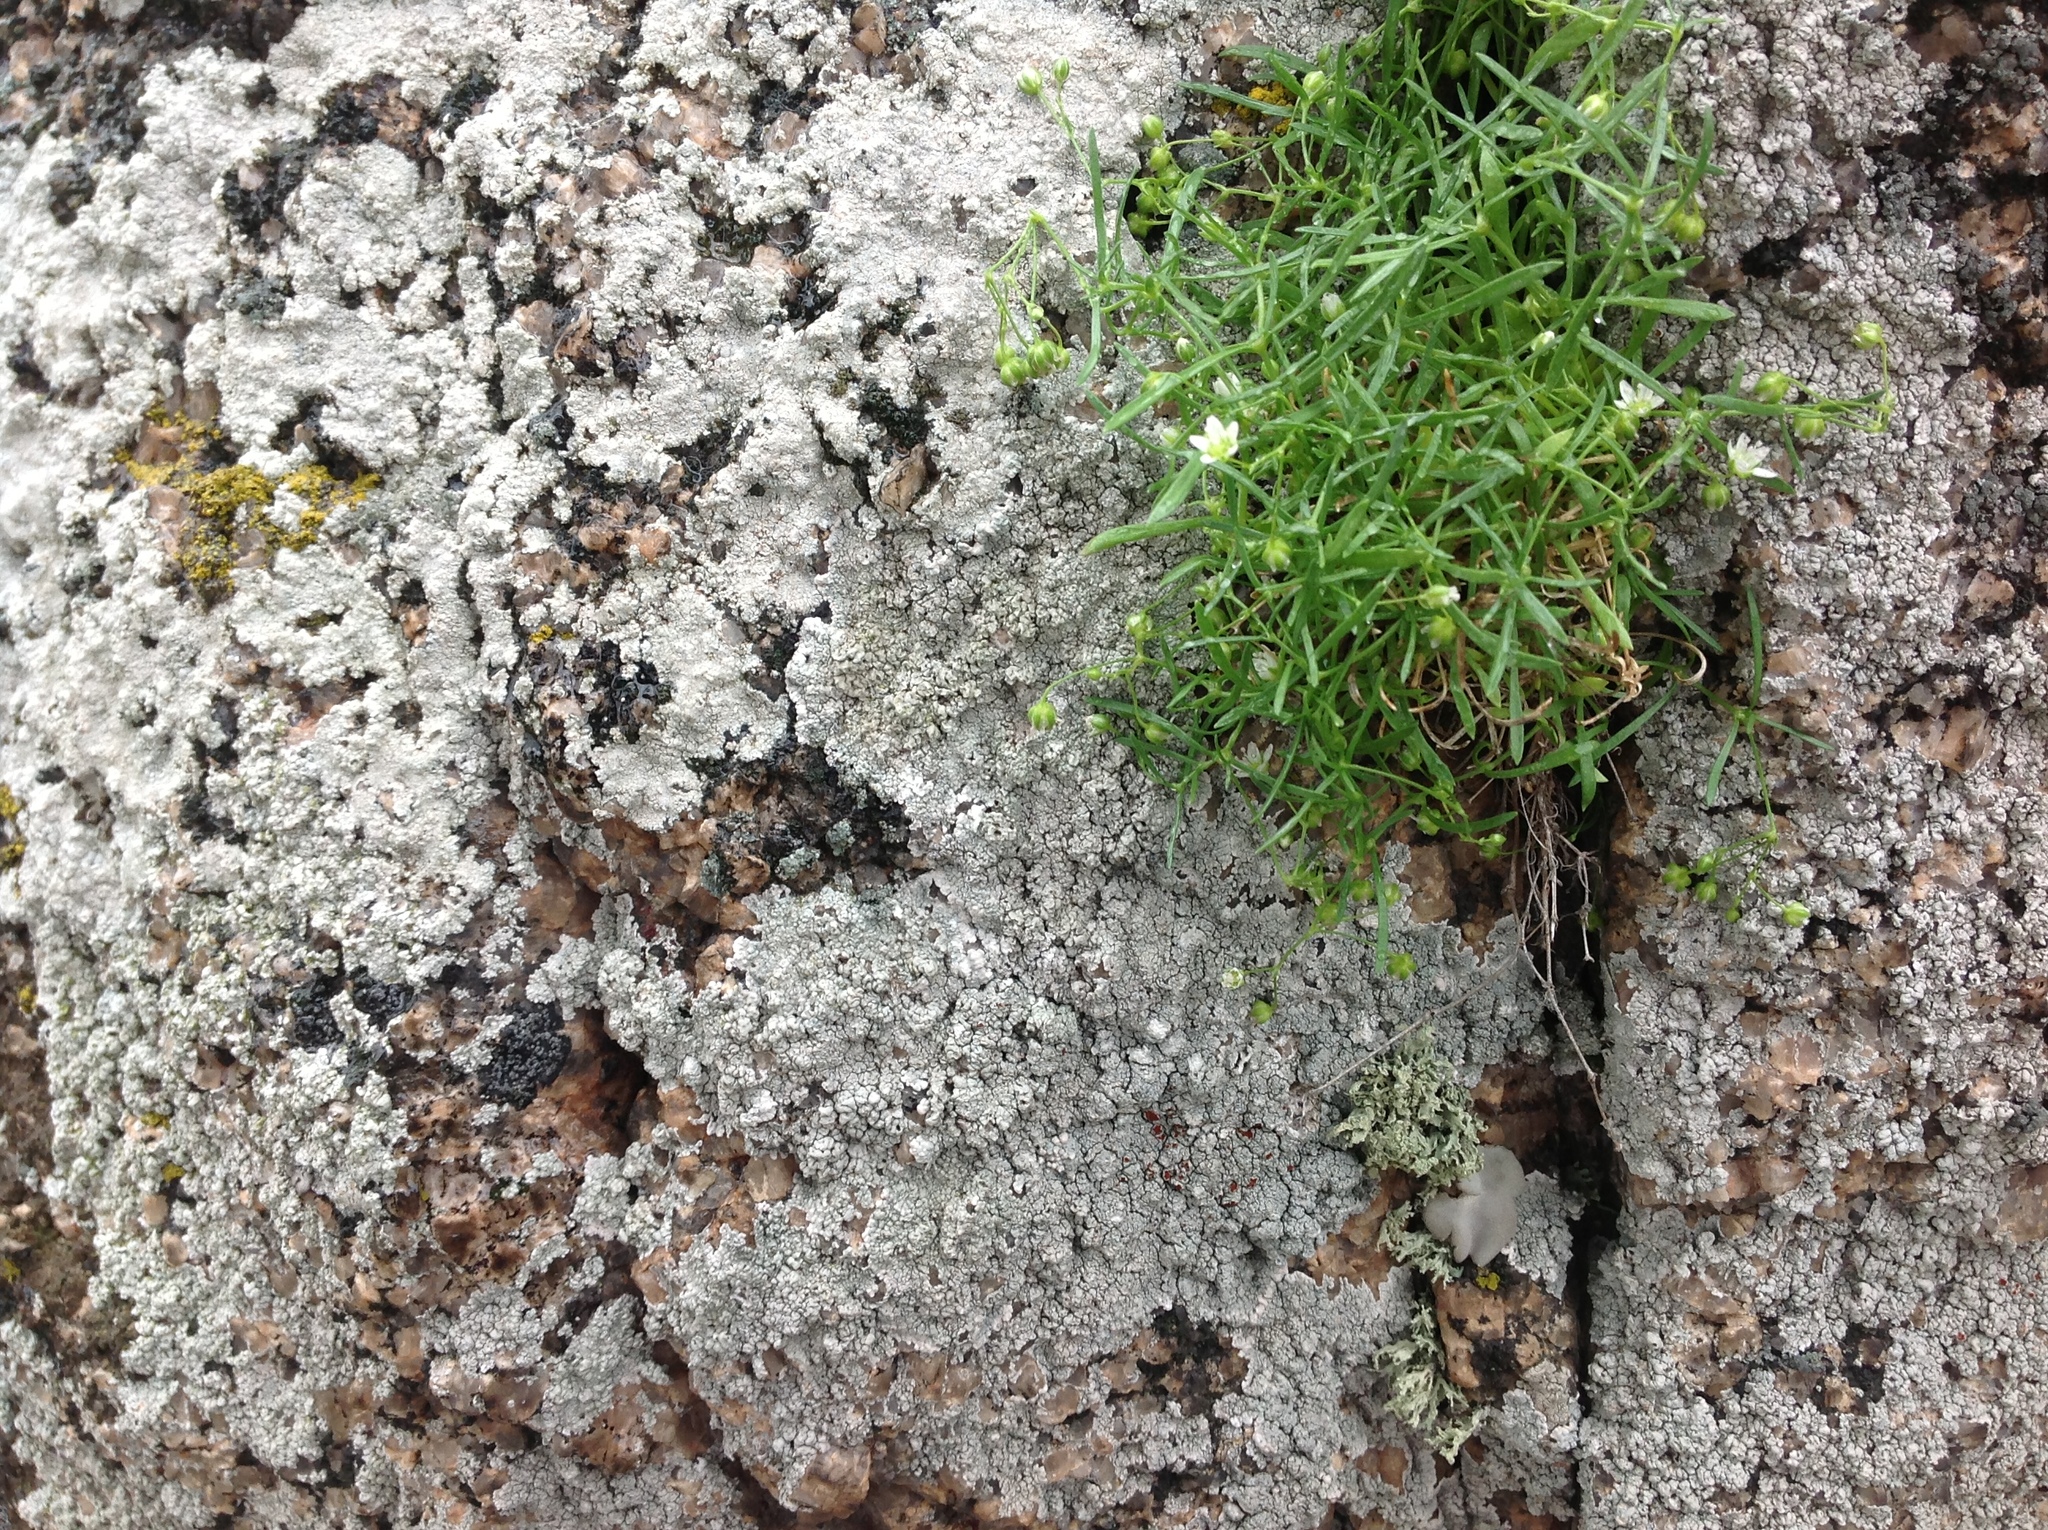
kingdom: Plantae
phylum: Tracheophyta
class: Magnoliopsida
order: Caryophyllales
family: Caryophyllaceae
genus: Moehringia
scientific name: Moehringia hypanica
